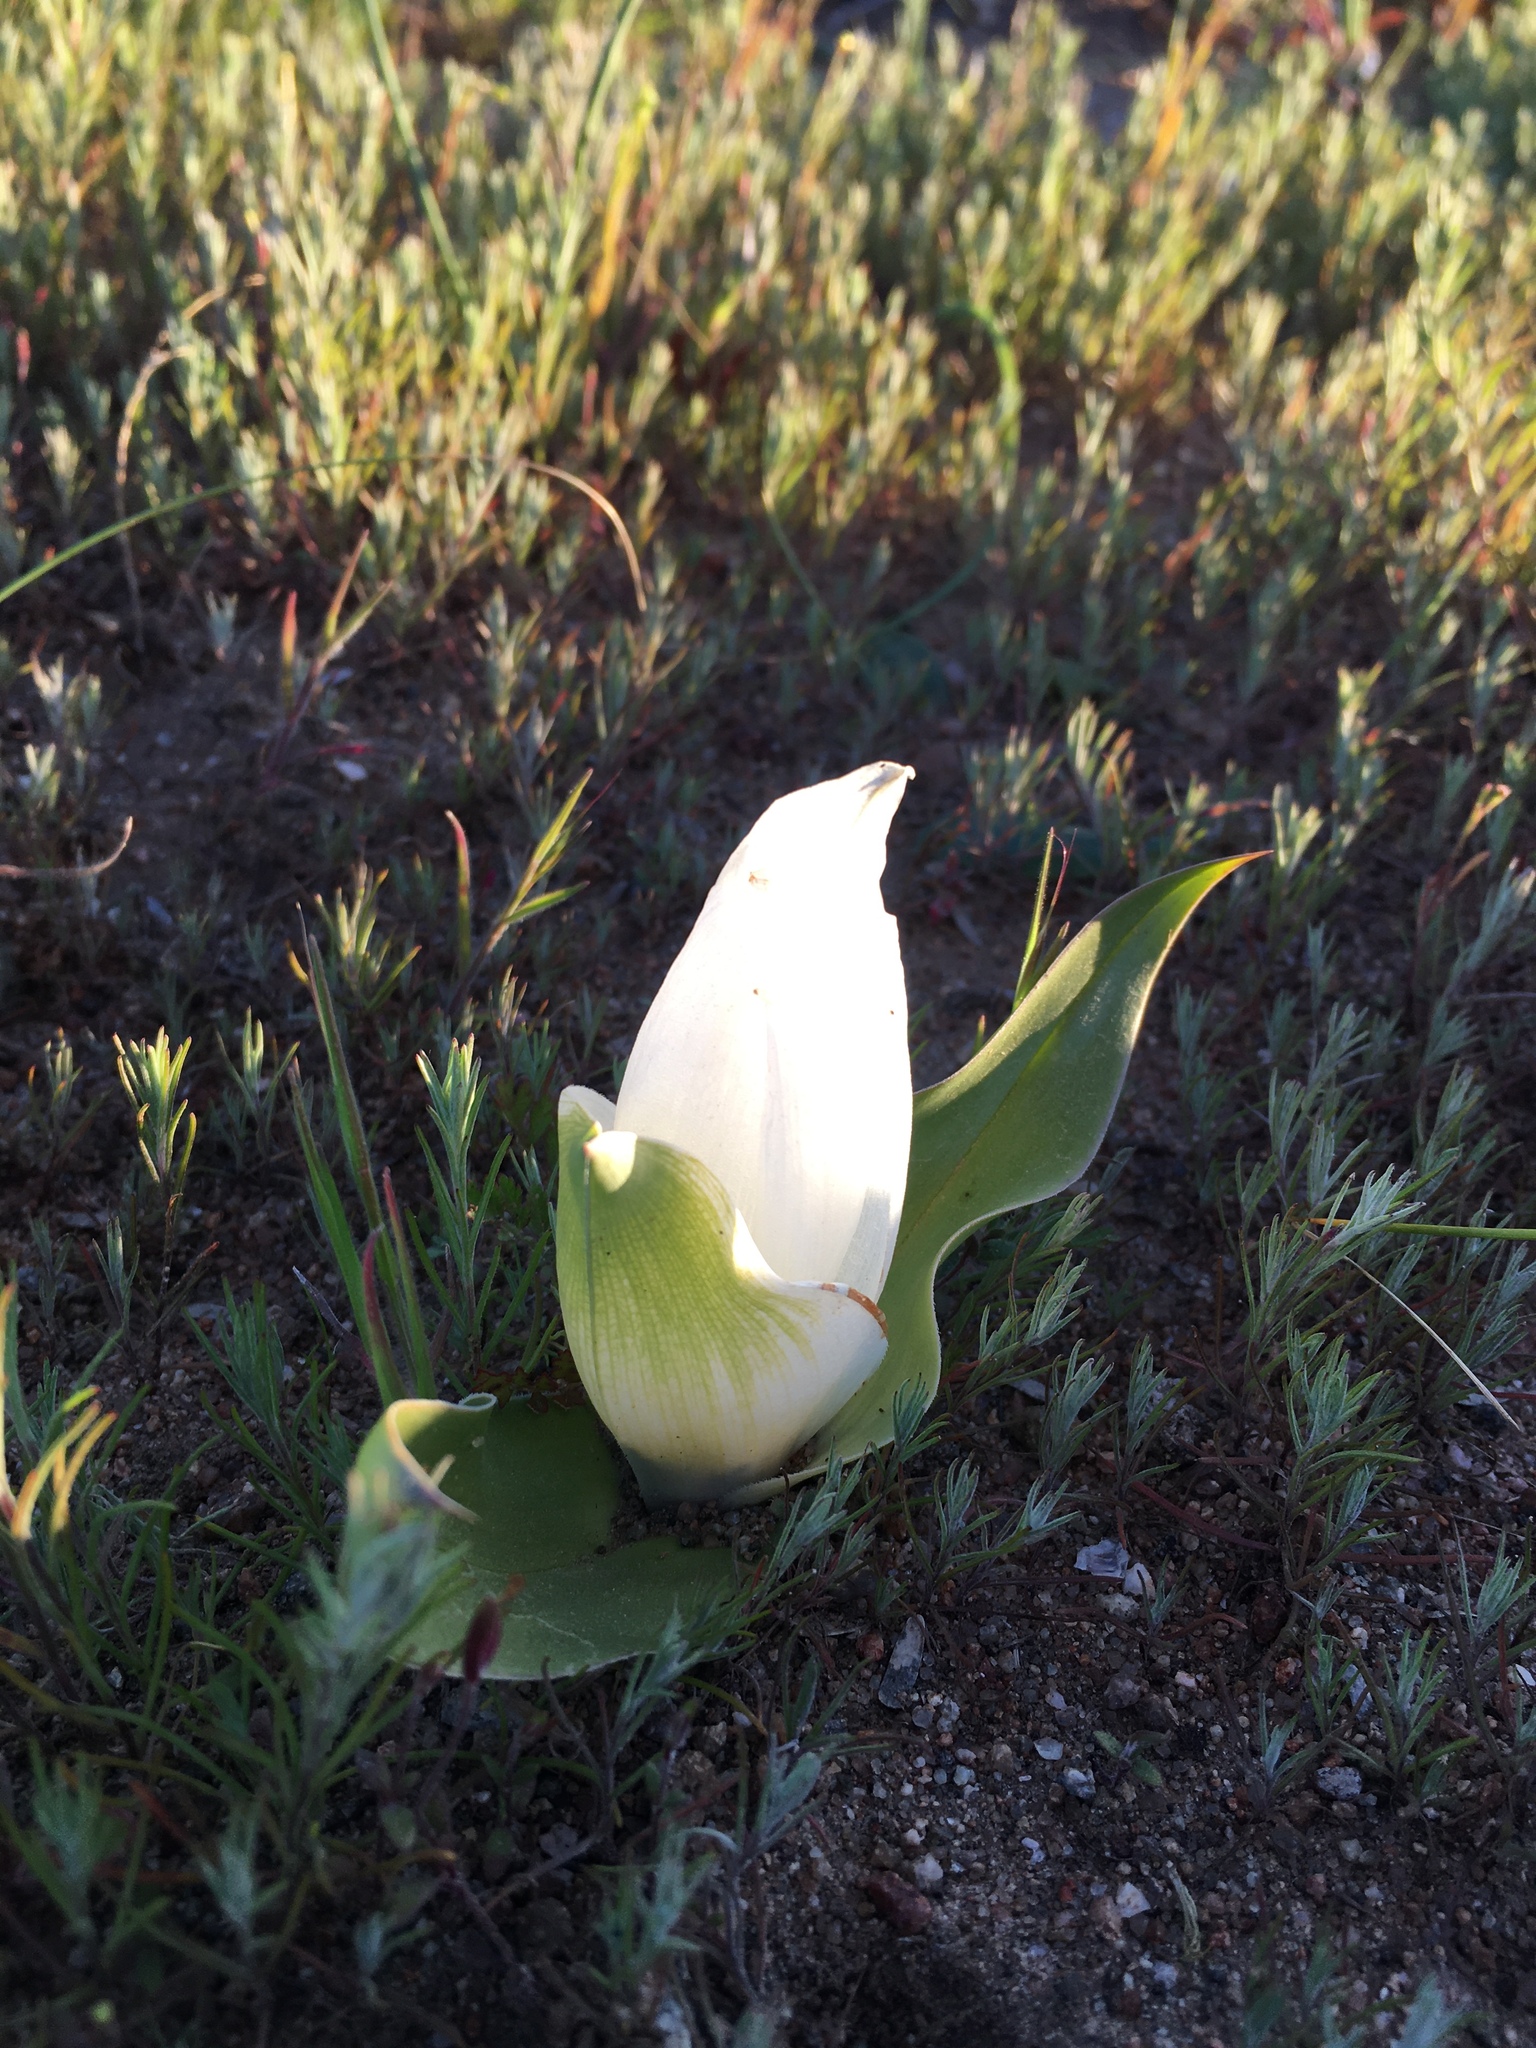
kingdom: Plantae
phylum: Tracheophyta
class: Liliopsida
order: Liliales
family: Colchicaceae
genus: Colchicum
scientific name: Colchicum capense
